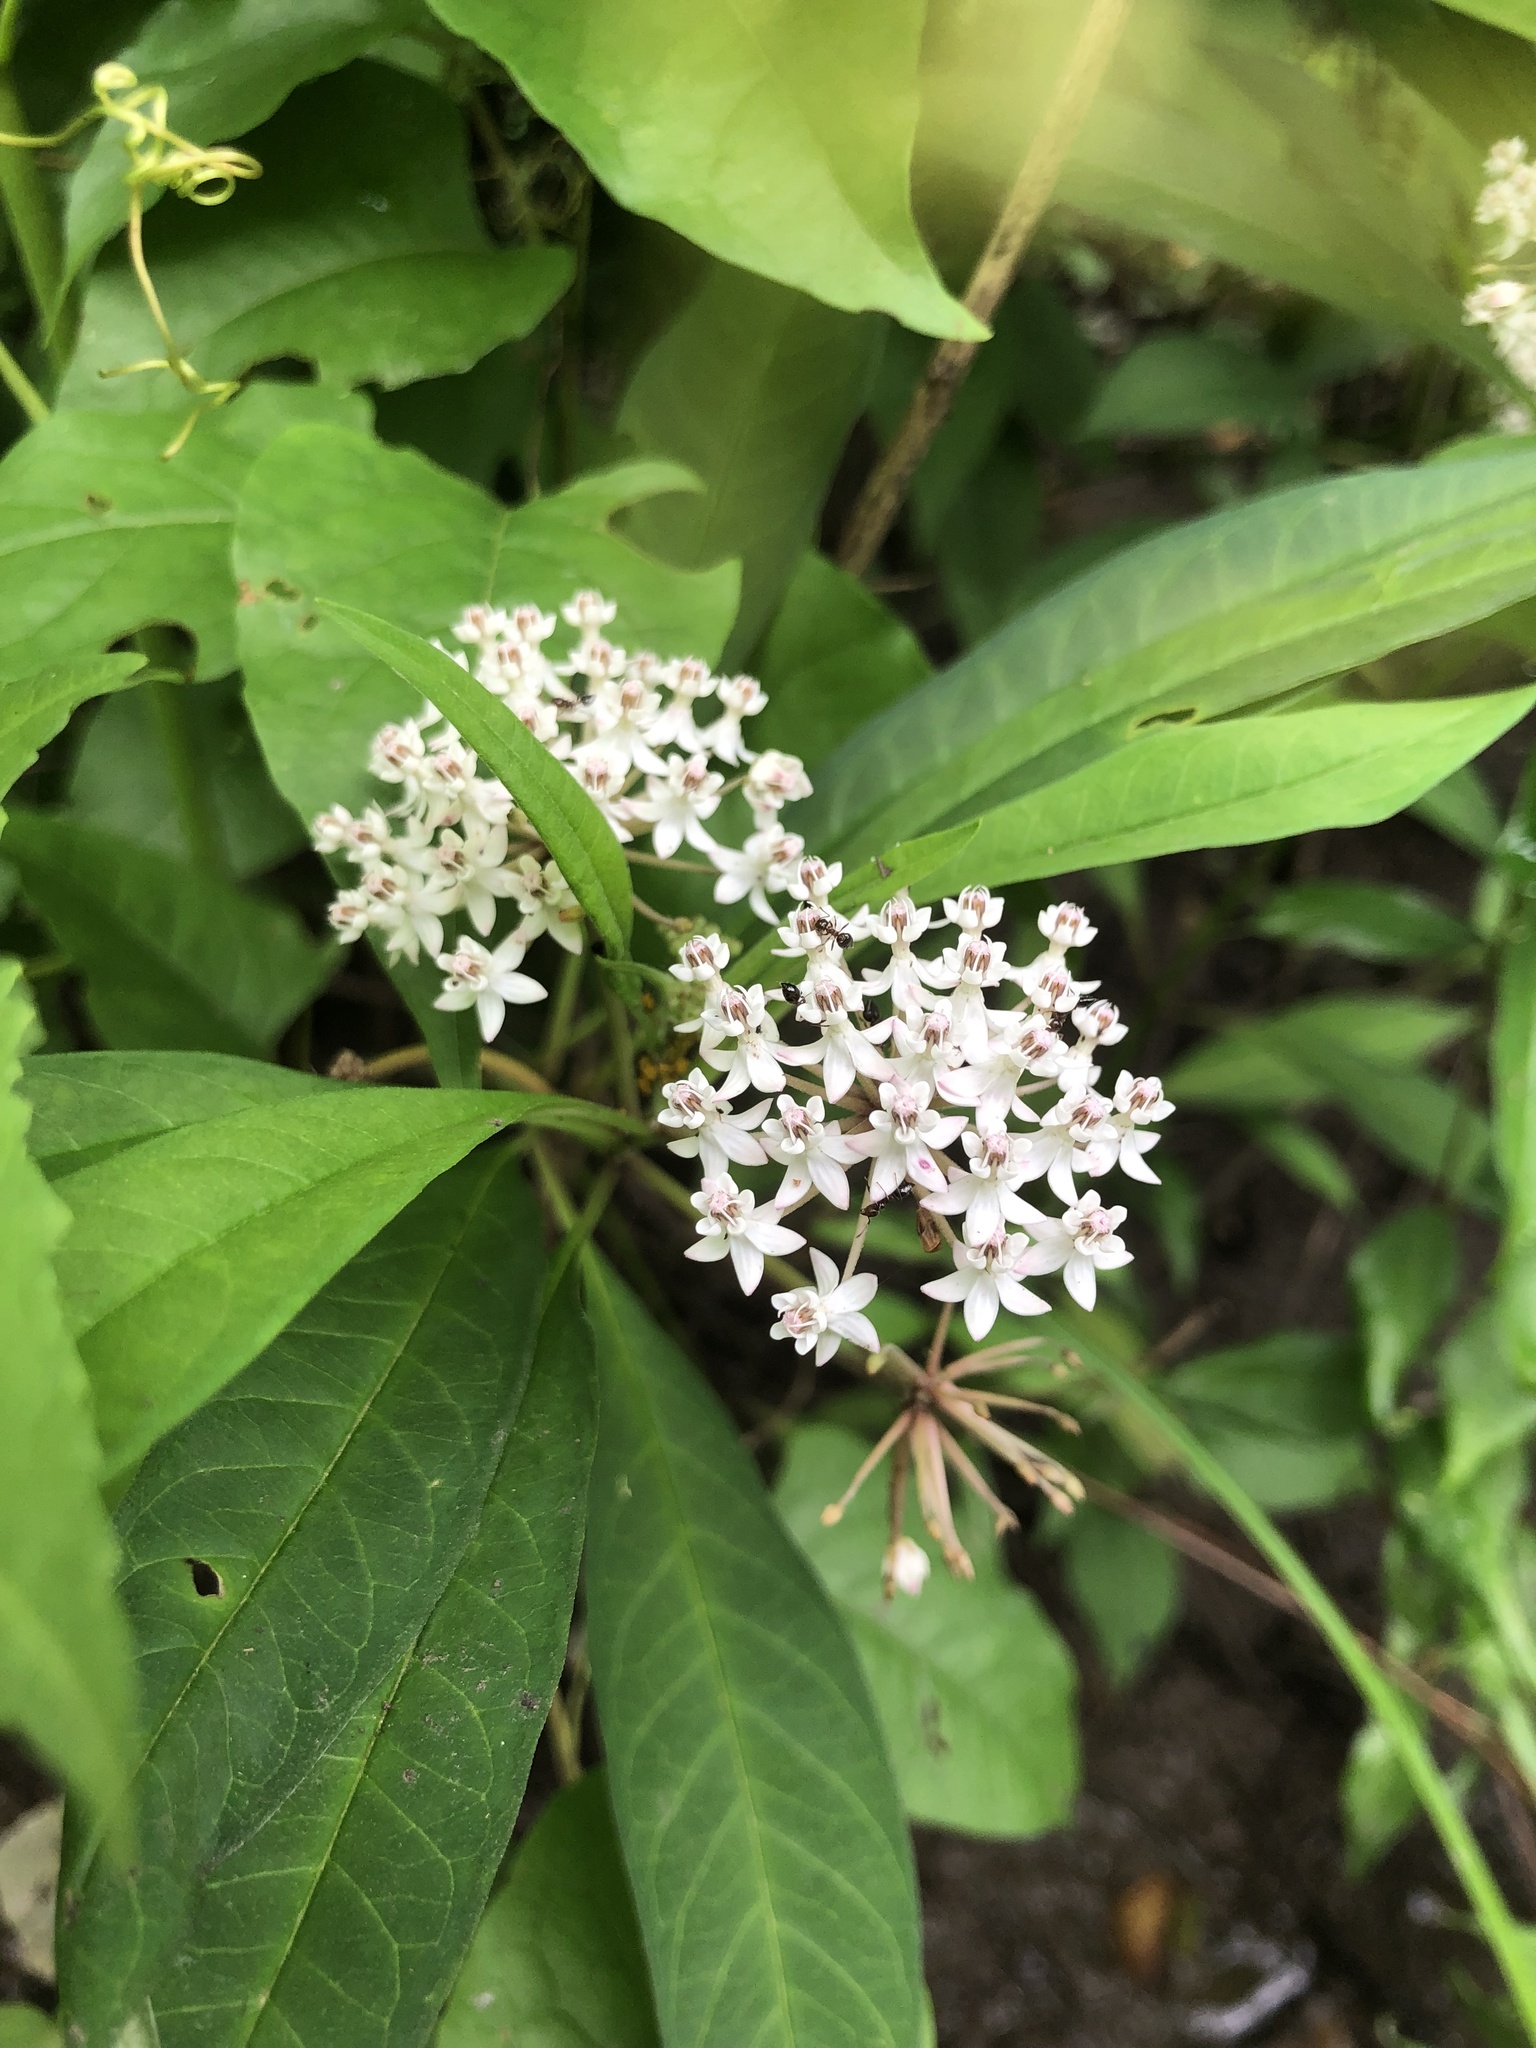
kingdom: Plantae
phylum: Tracheophyta
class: Magnoliopsida
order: Gentianales
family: Apocynaceae
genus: Asclepias
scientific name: Asclepias perennis
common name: Smooth-seed milkweed
